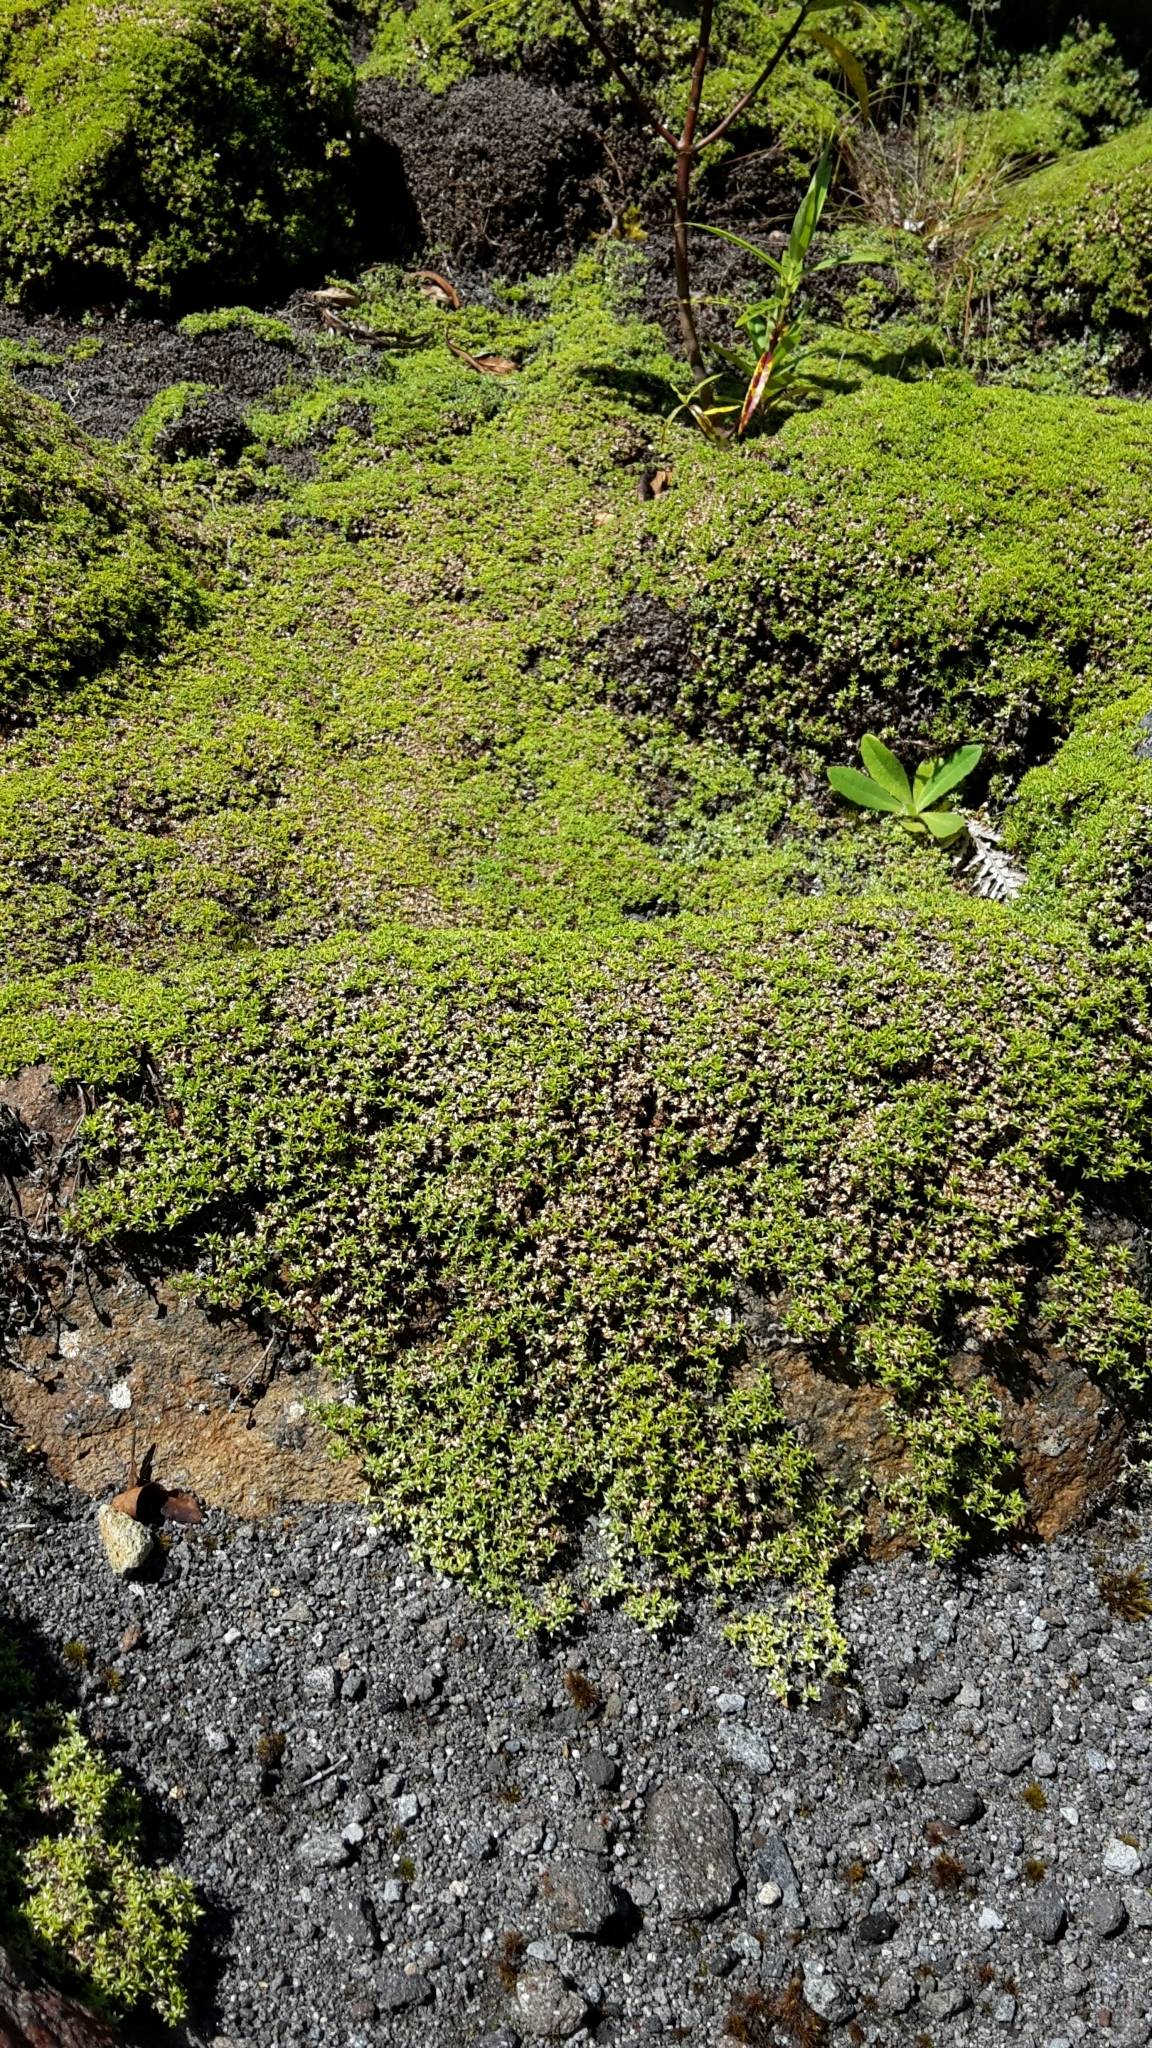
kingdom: Plantae
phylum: Tracheophyta
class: Magnoliopsida
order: Asterales
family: Asteraceae
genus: Raoulia
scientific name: Raoulia tenuicaulis
